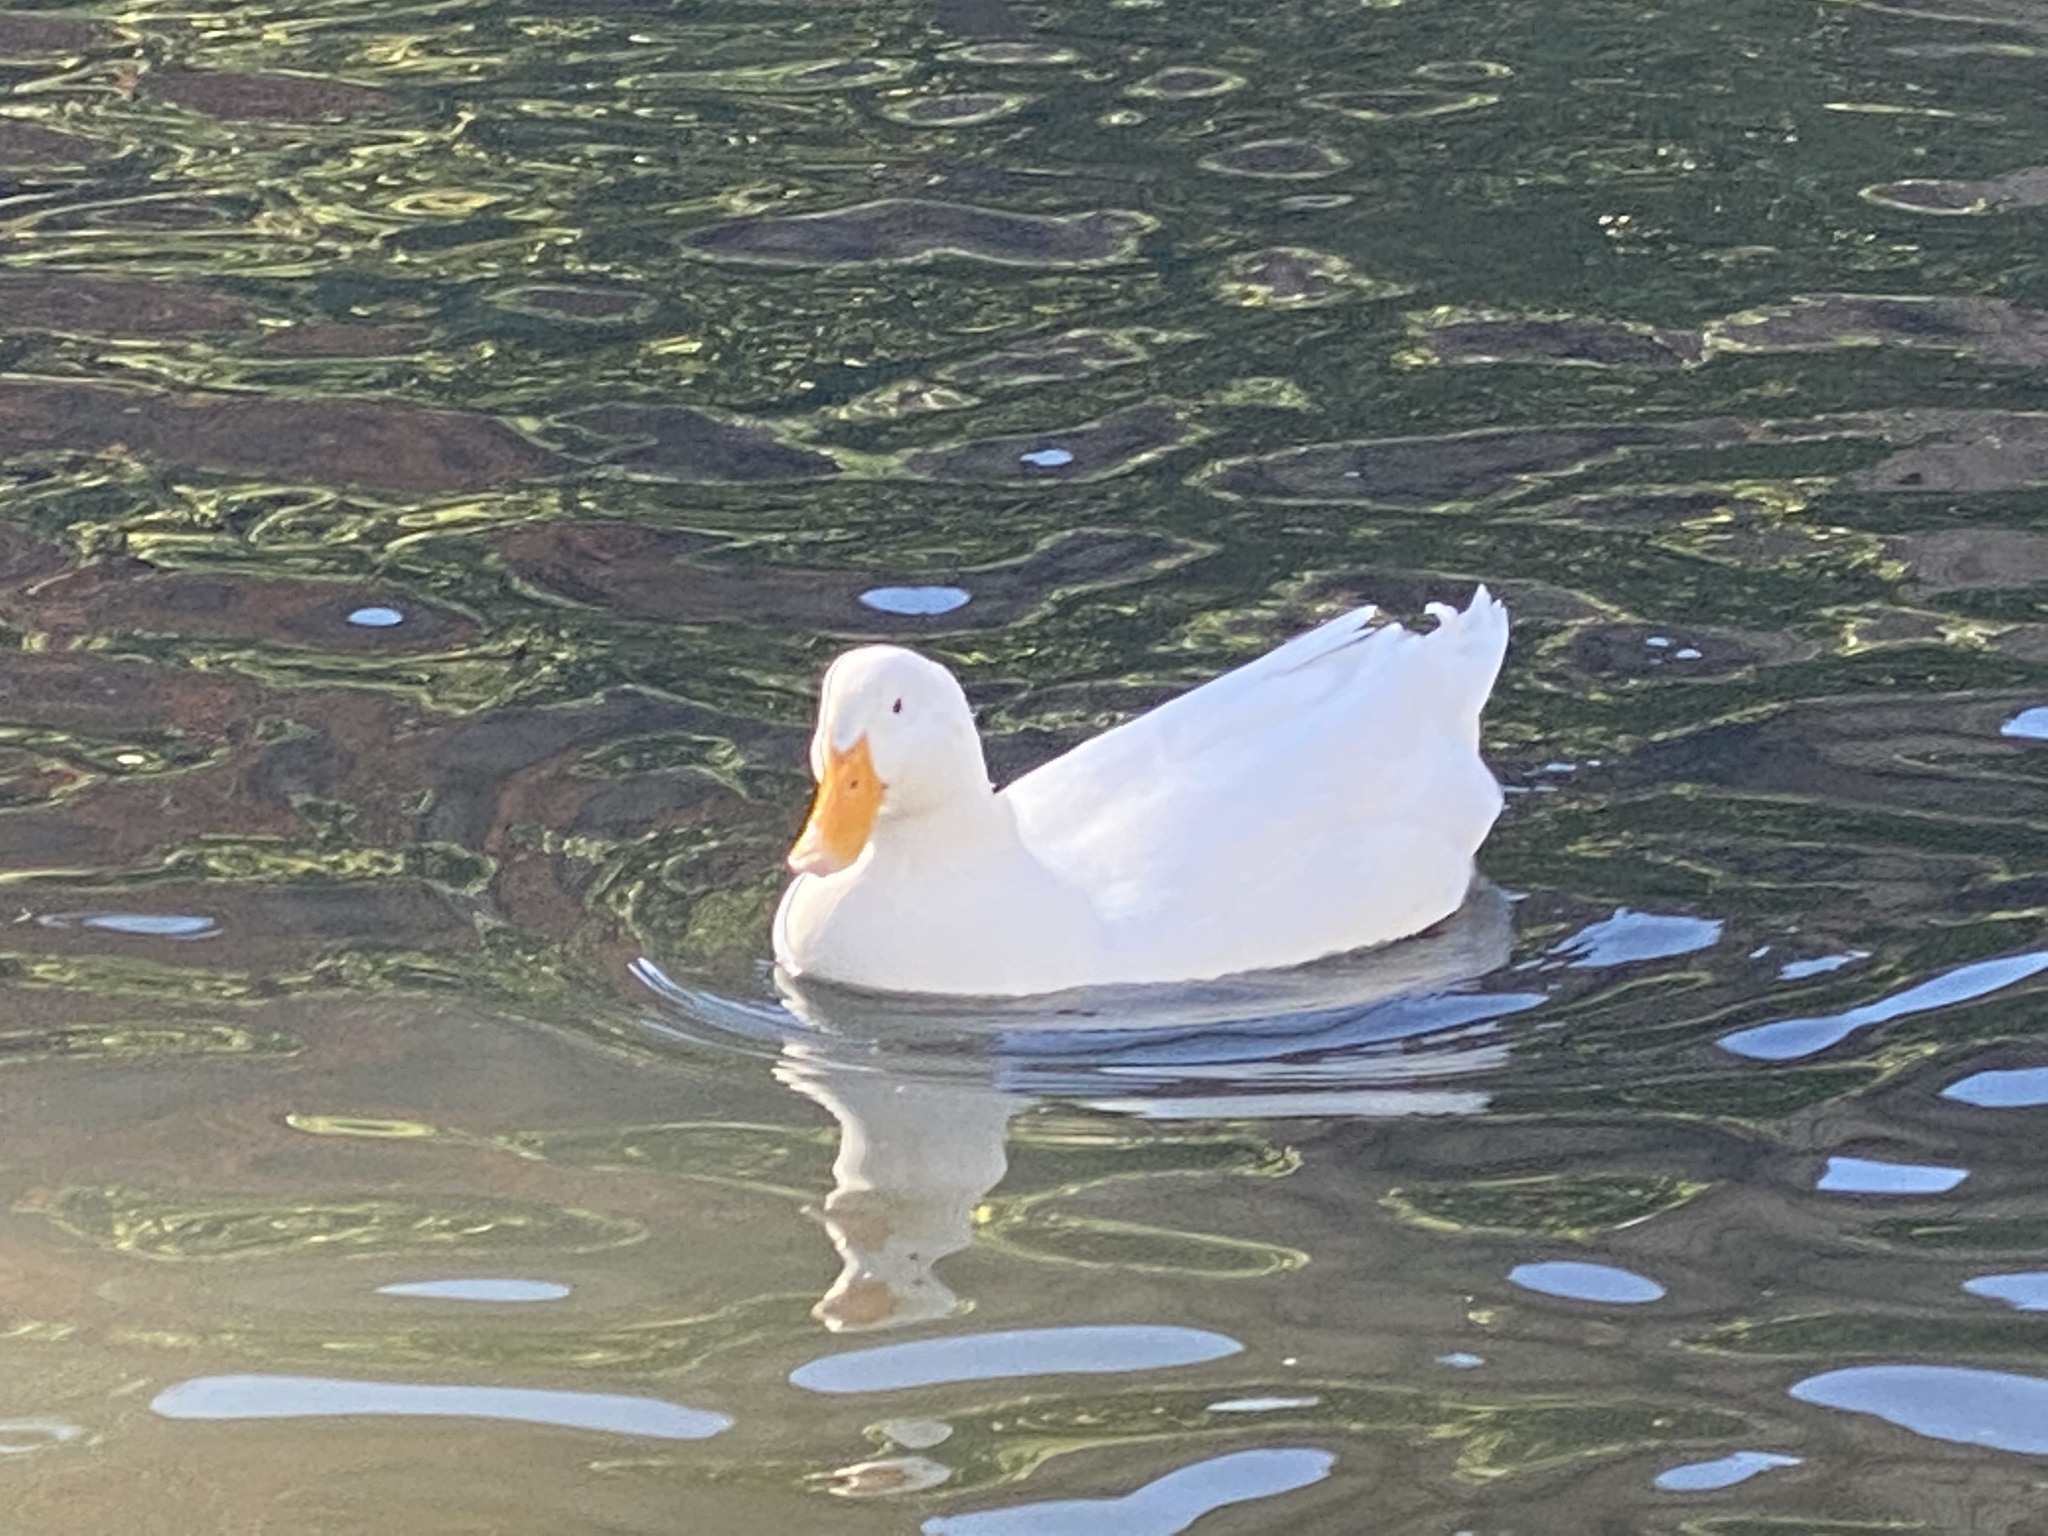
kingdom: Animalia
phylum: Chordata
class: Aves
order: Anseriformes
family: Anatidae
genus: Anas
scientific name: Anas platyrhynchos
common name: Mallard
